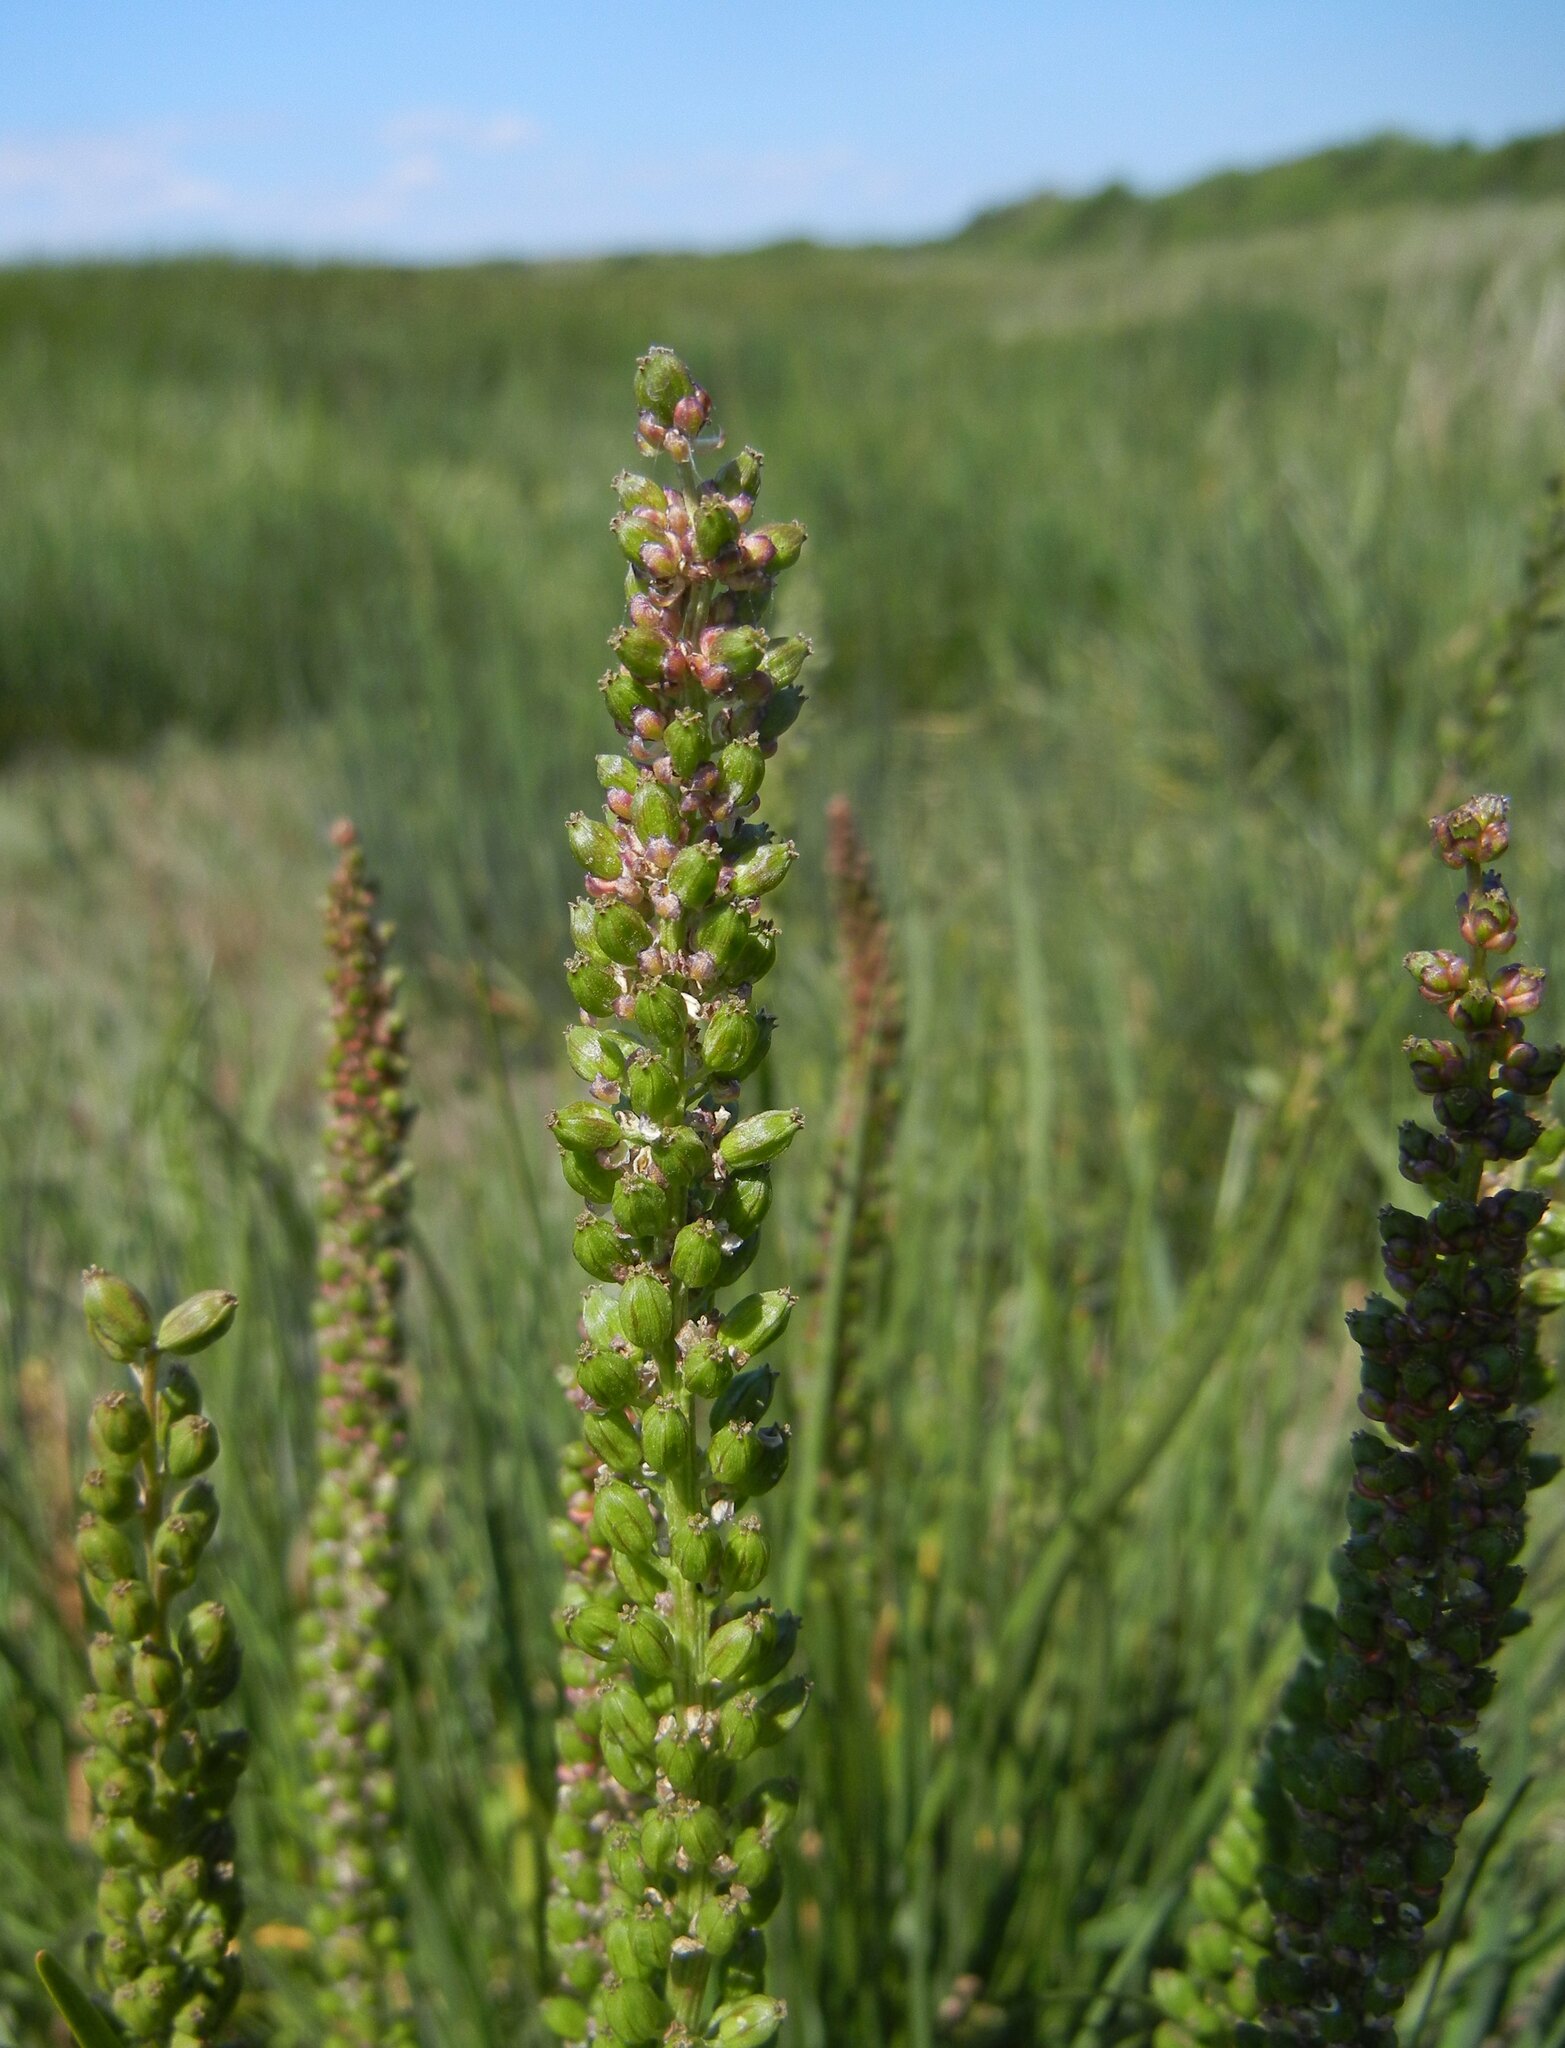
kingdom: Plantae
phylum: Tracheophyta
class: Liliopsida
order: Alismatales
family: Juncaginaceae
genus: Triglochin
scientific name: Triglochin maritima
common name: Sea arrowgrass
